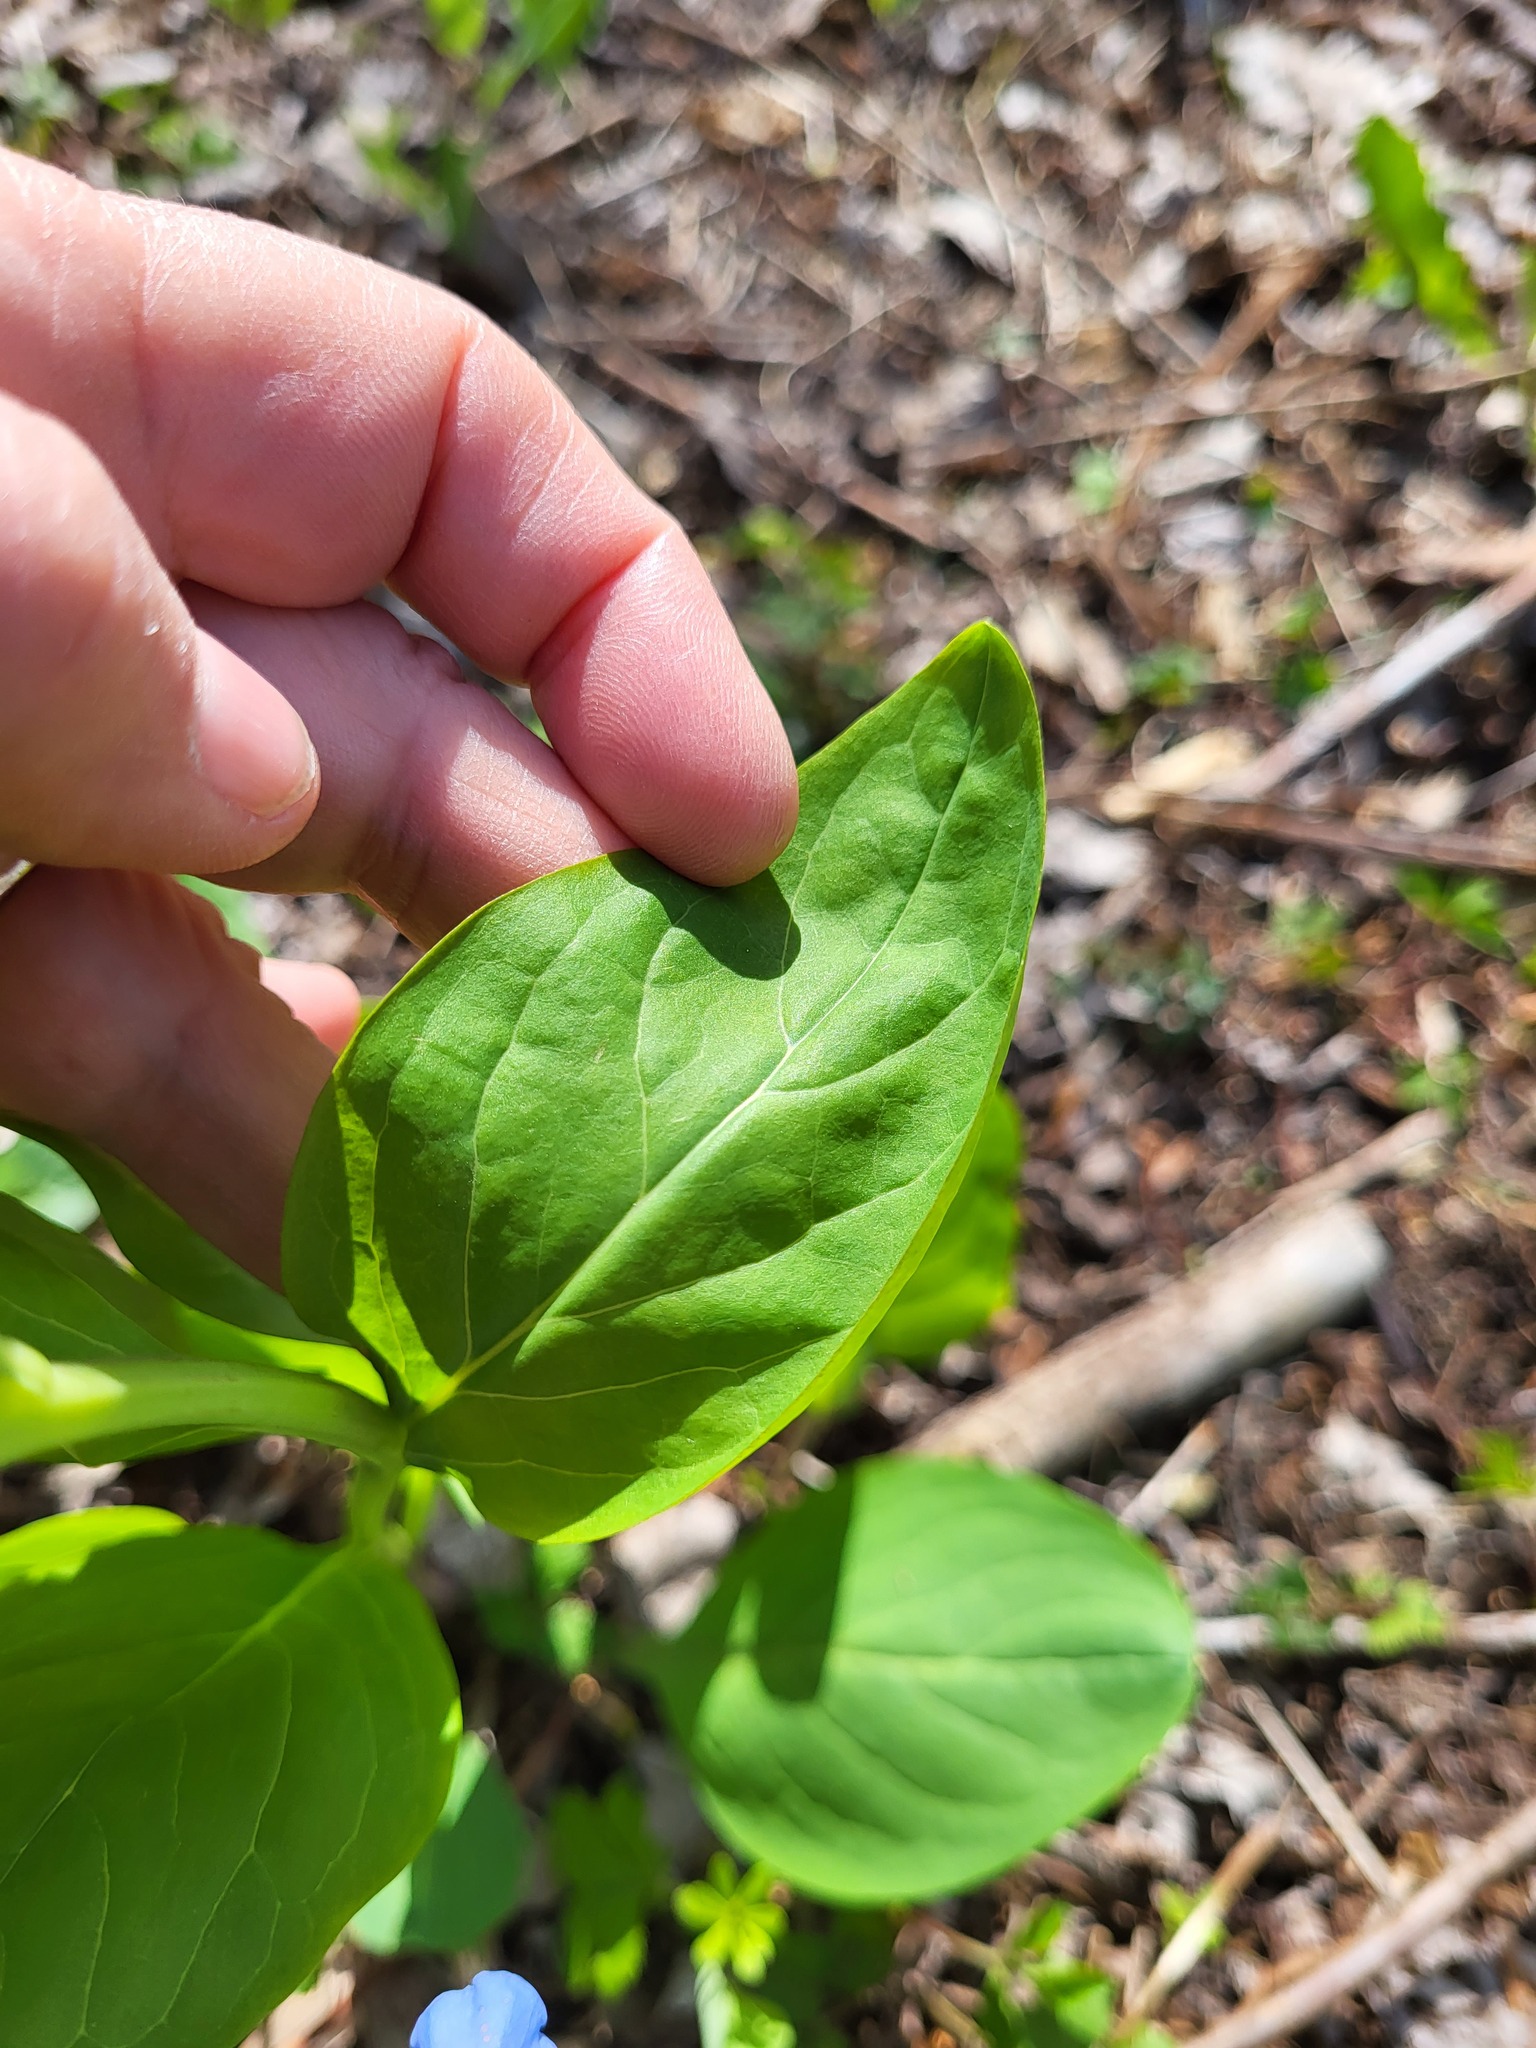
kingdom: Plantae
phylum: Tracheophyta
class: Magnoliopsida
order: Boraginales
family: Boraginaceae
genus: Mertensia
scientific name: Mertensia virginica
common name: Virginia bluebells
